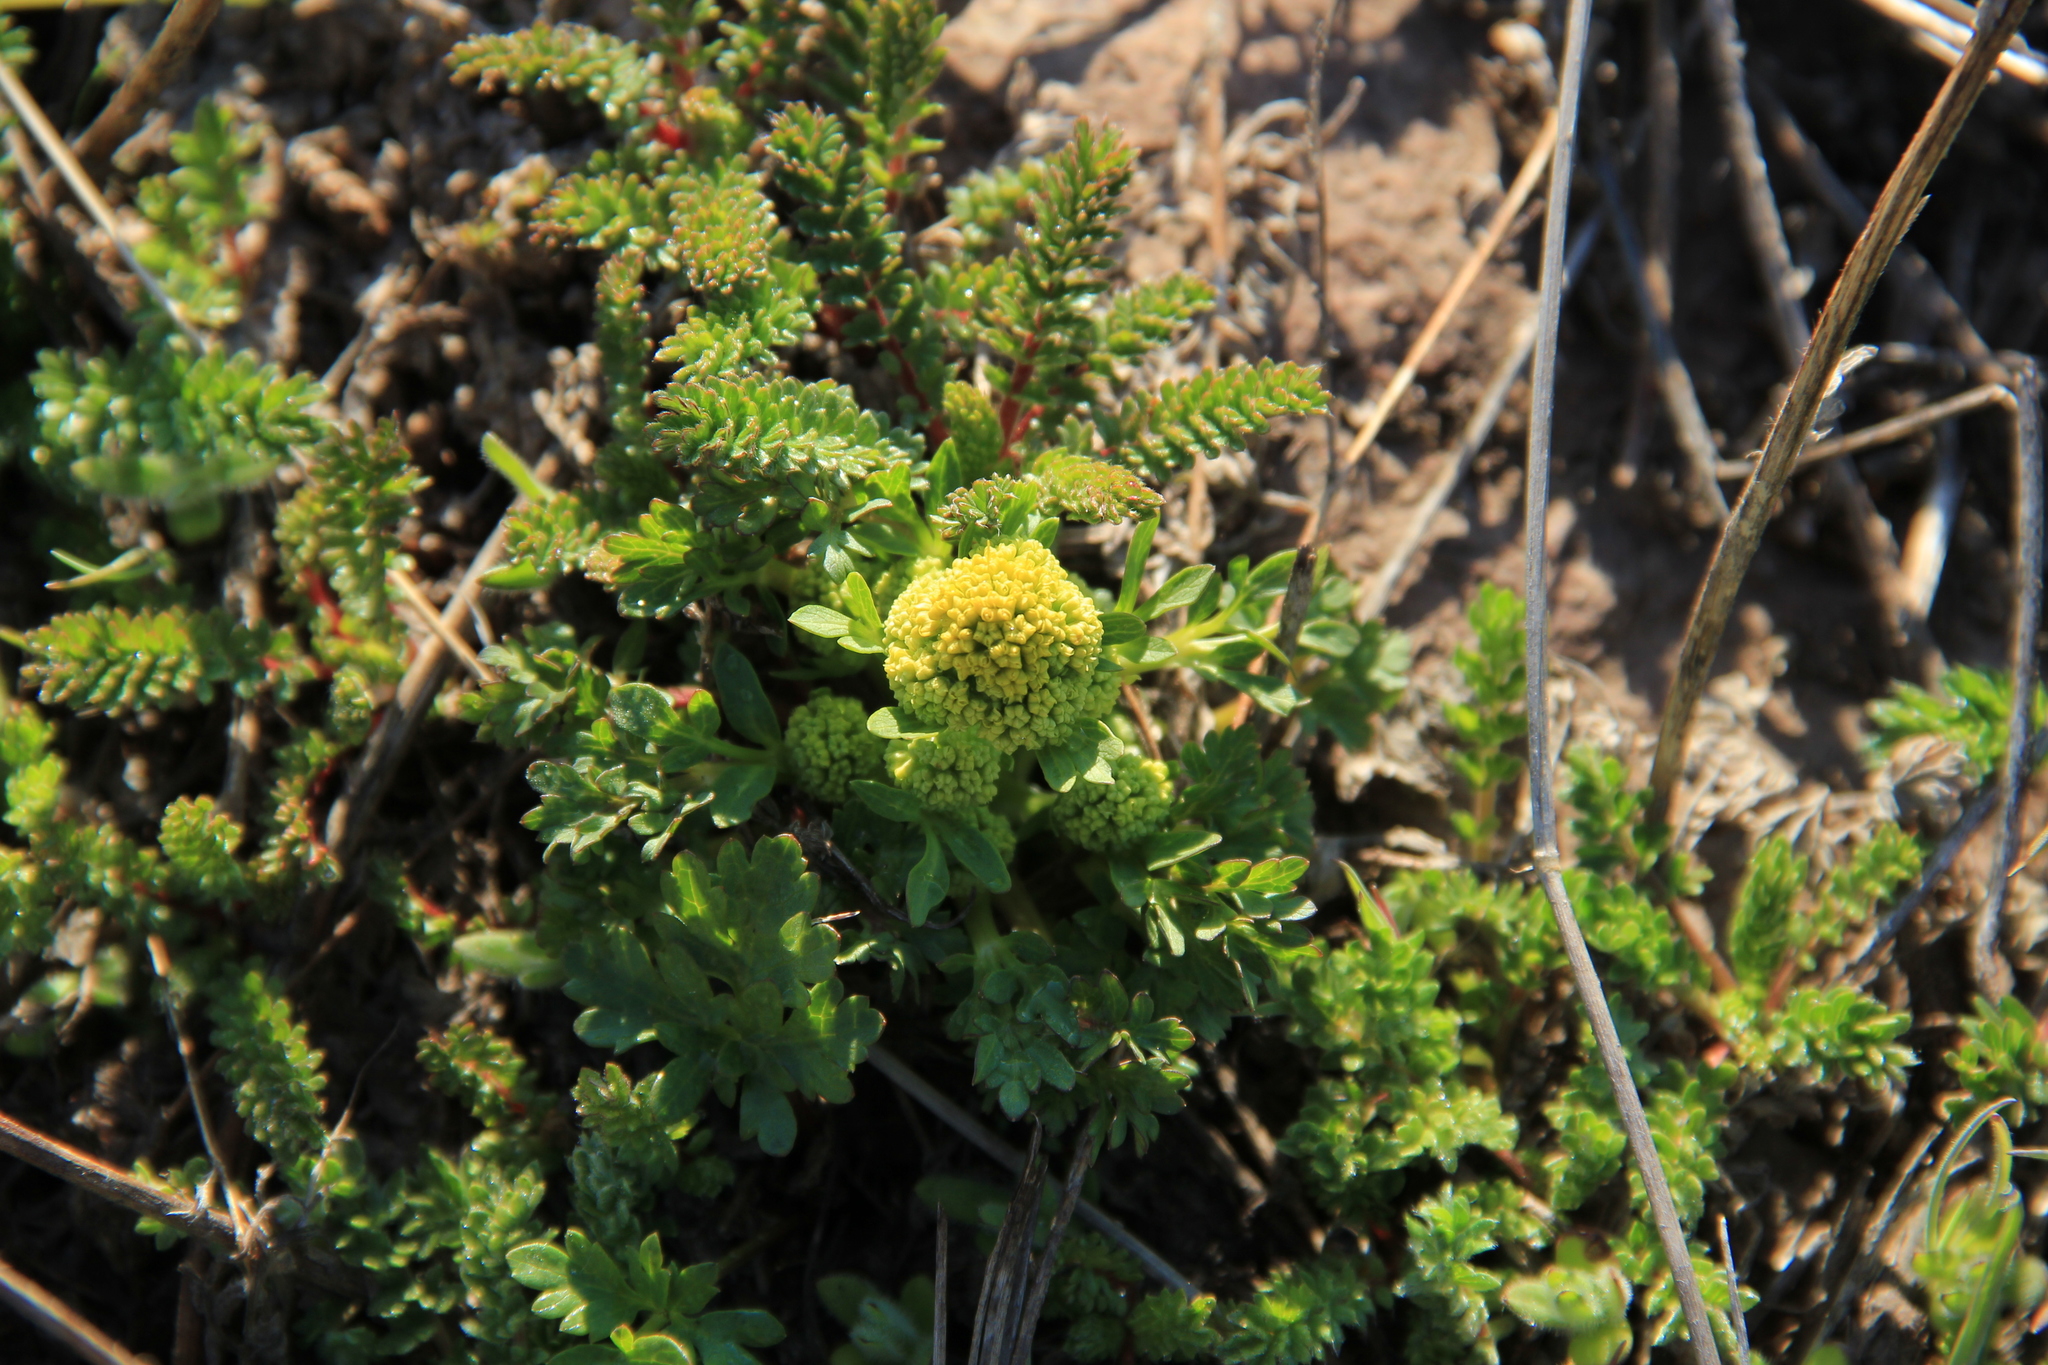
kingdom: Plantae
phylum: Tracheophyta
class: Magnoliopsida
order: Apiales
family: Apiaceae
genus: Sanicula
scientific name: Sanicula graveolens
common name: Sierra sanicle
